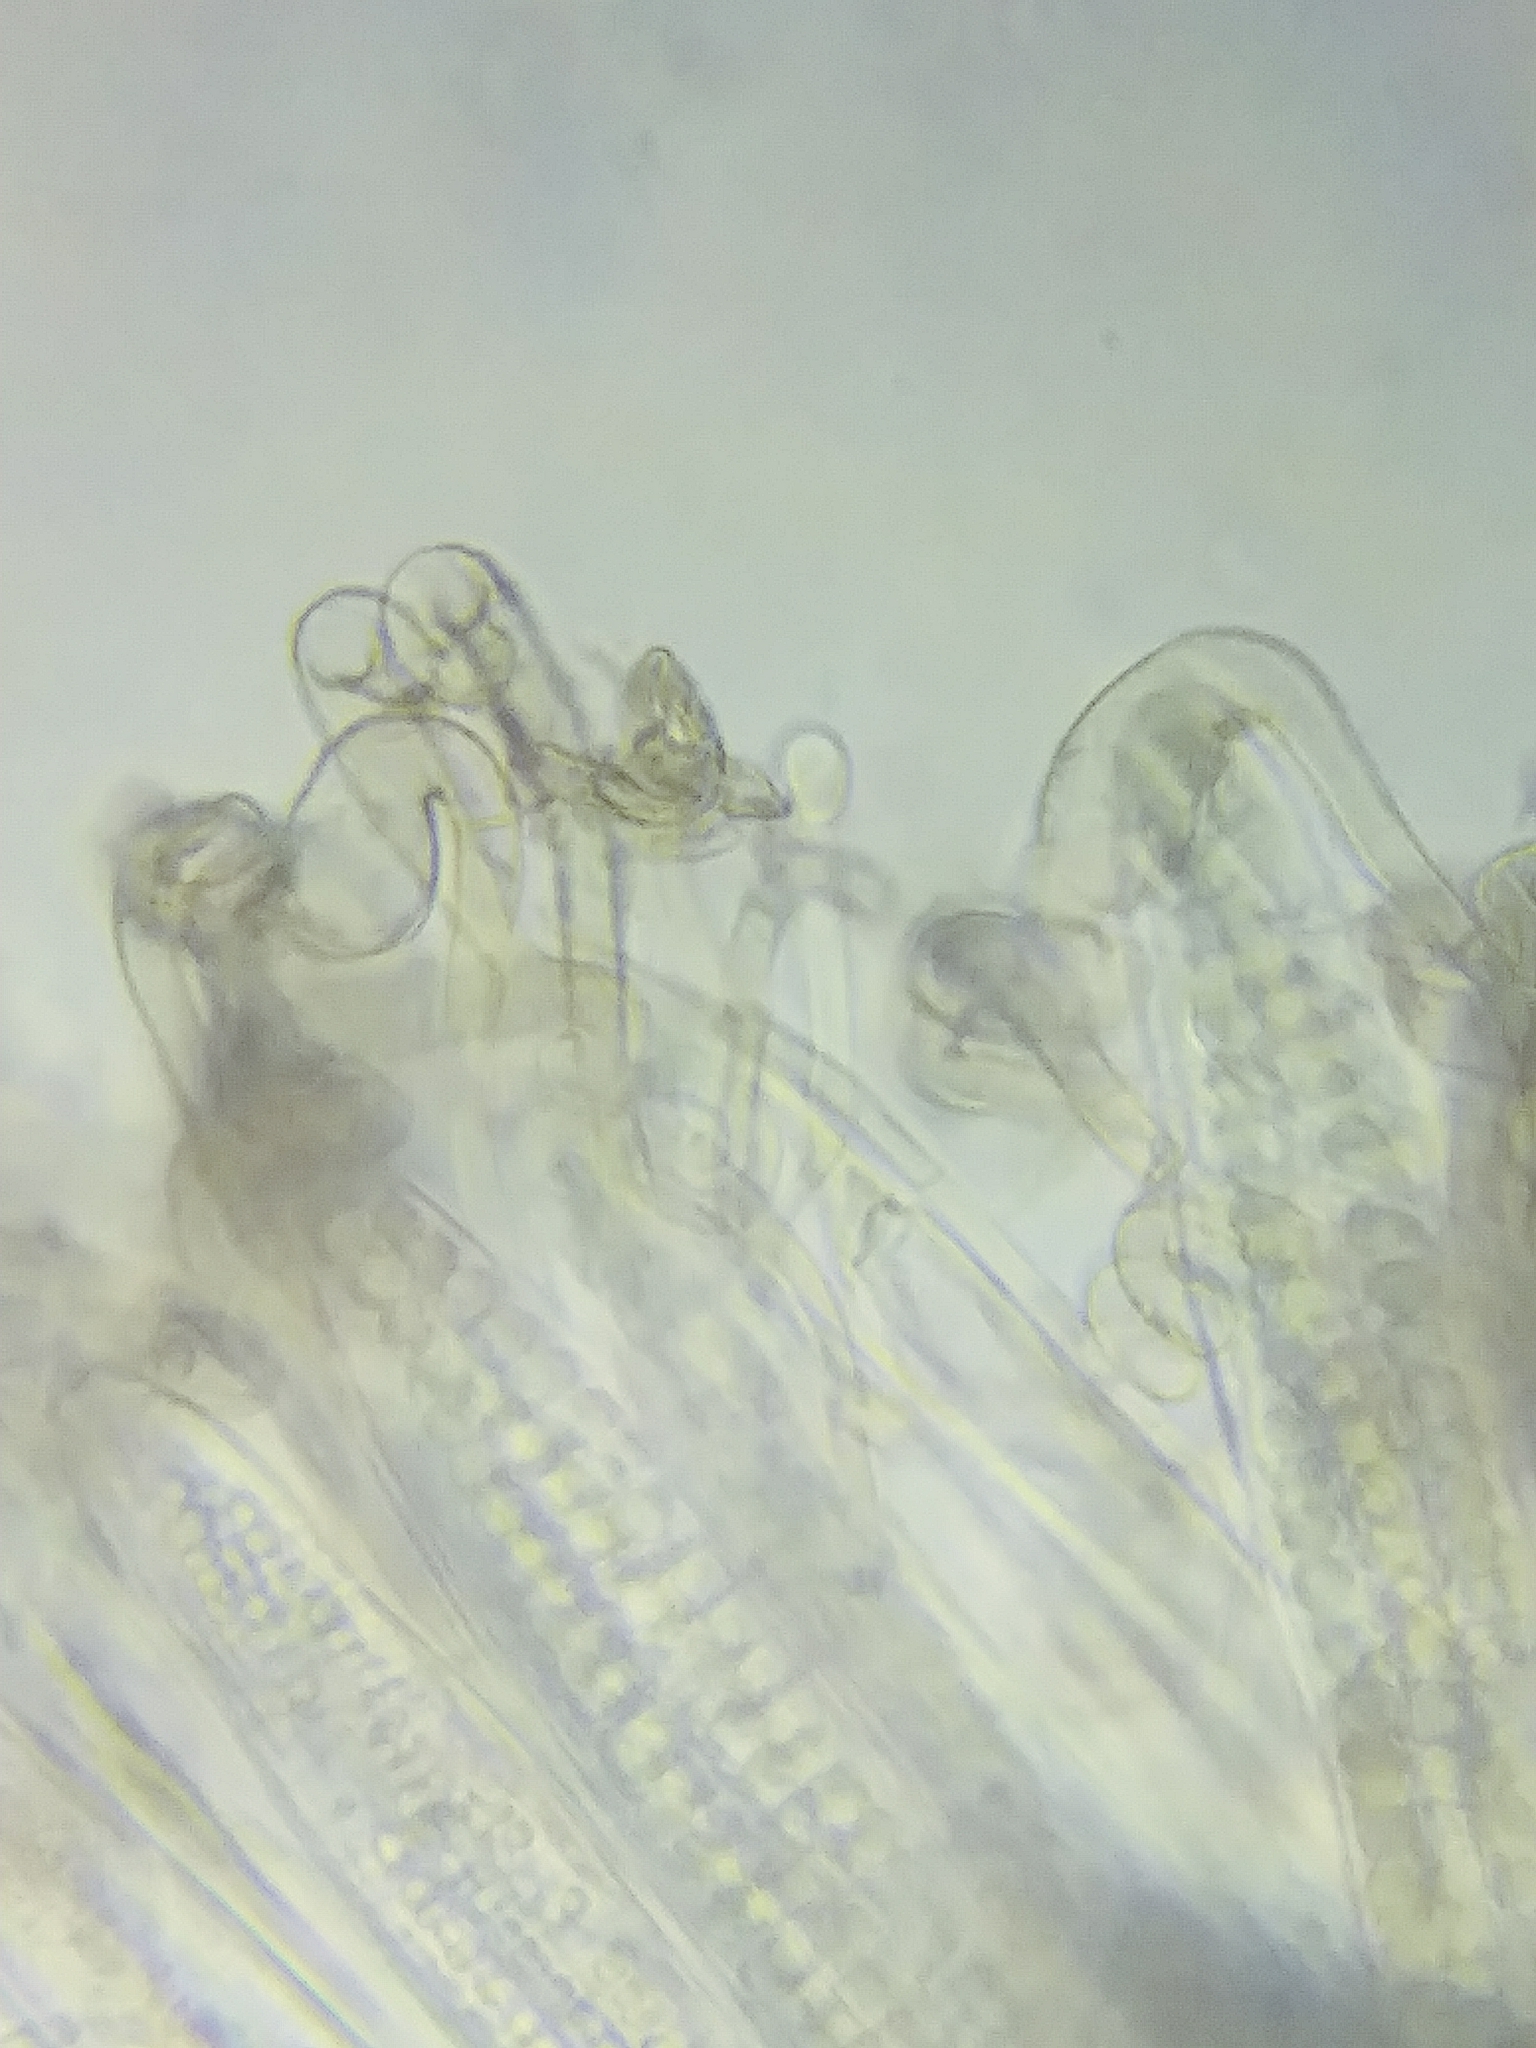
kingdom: Fungi
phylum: Ascomycota
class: Geoglossomycetes
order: Geoglossales
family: Geoglossaceae
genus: Trichoglossum
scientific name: Trichoglossum farlowii
